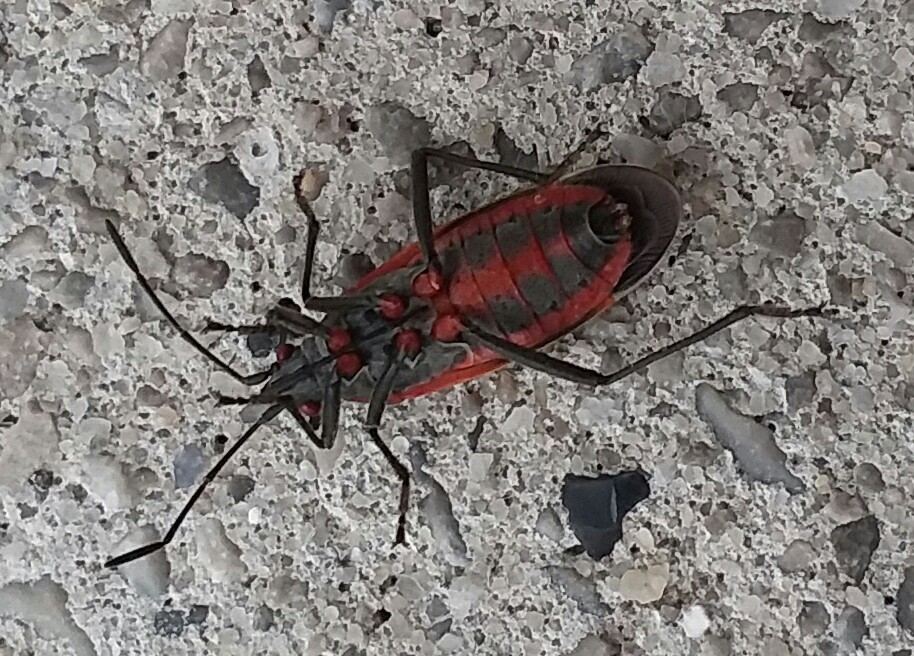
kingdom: Animalia
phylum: Arthropoda
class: Insecta
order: Hemiptera
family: Rhopalidae
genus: Boisea
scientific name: Boisea trivittata
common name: Boxelder bug
